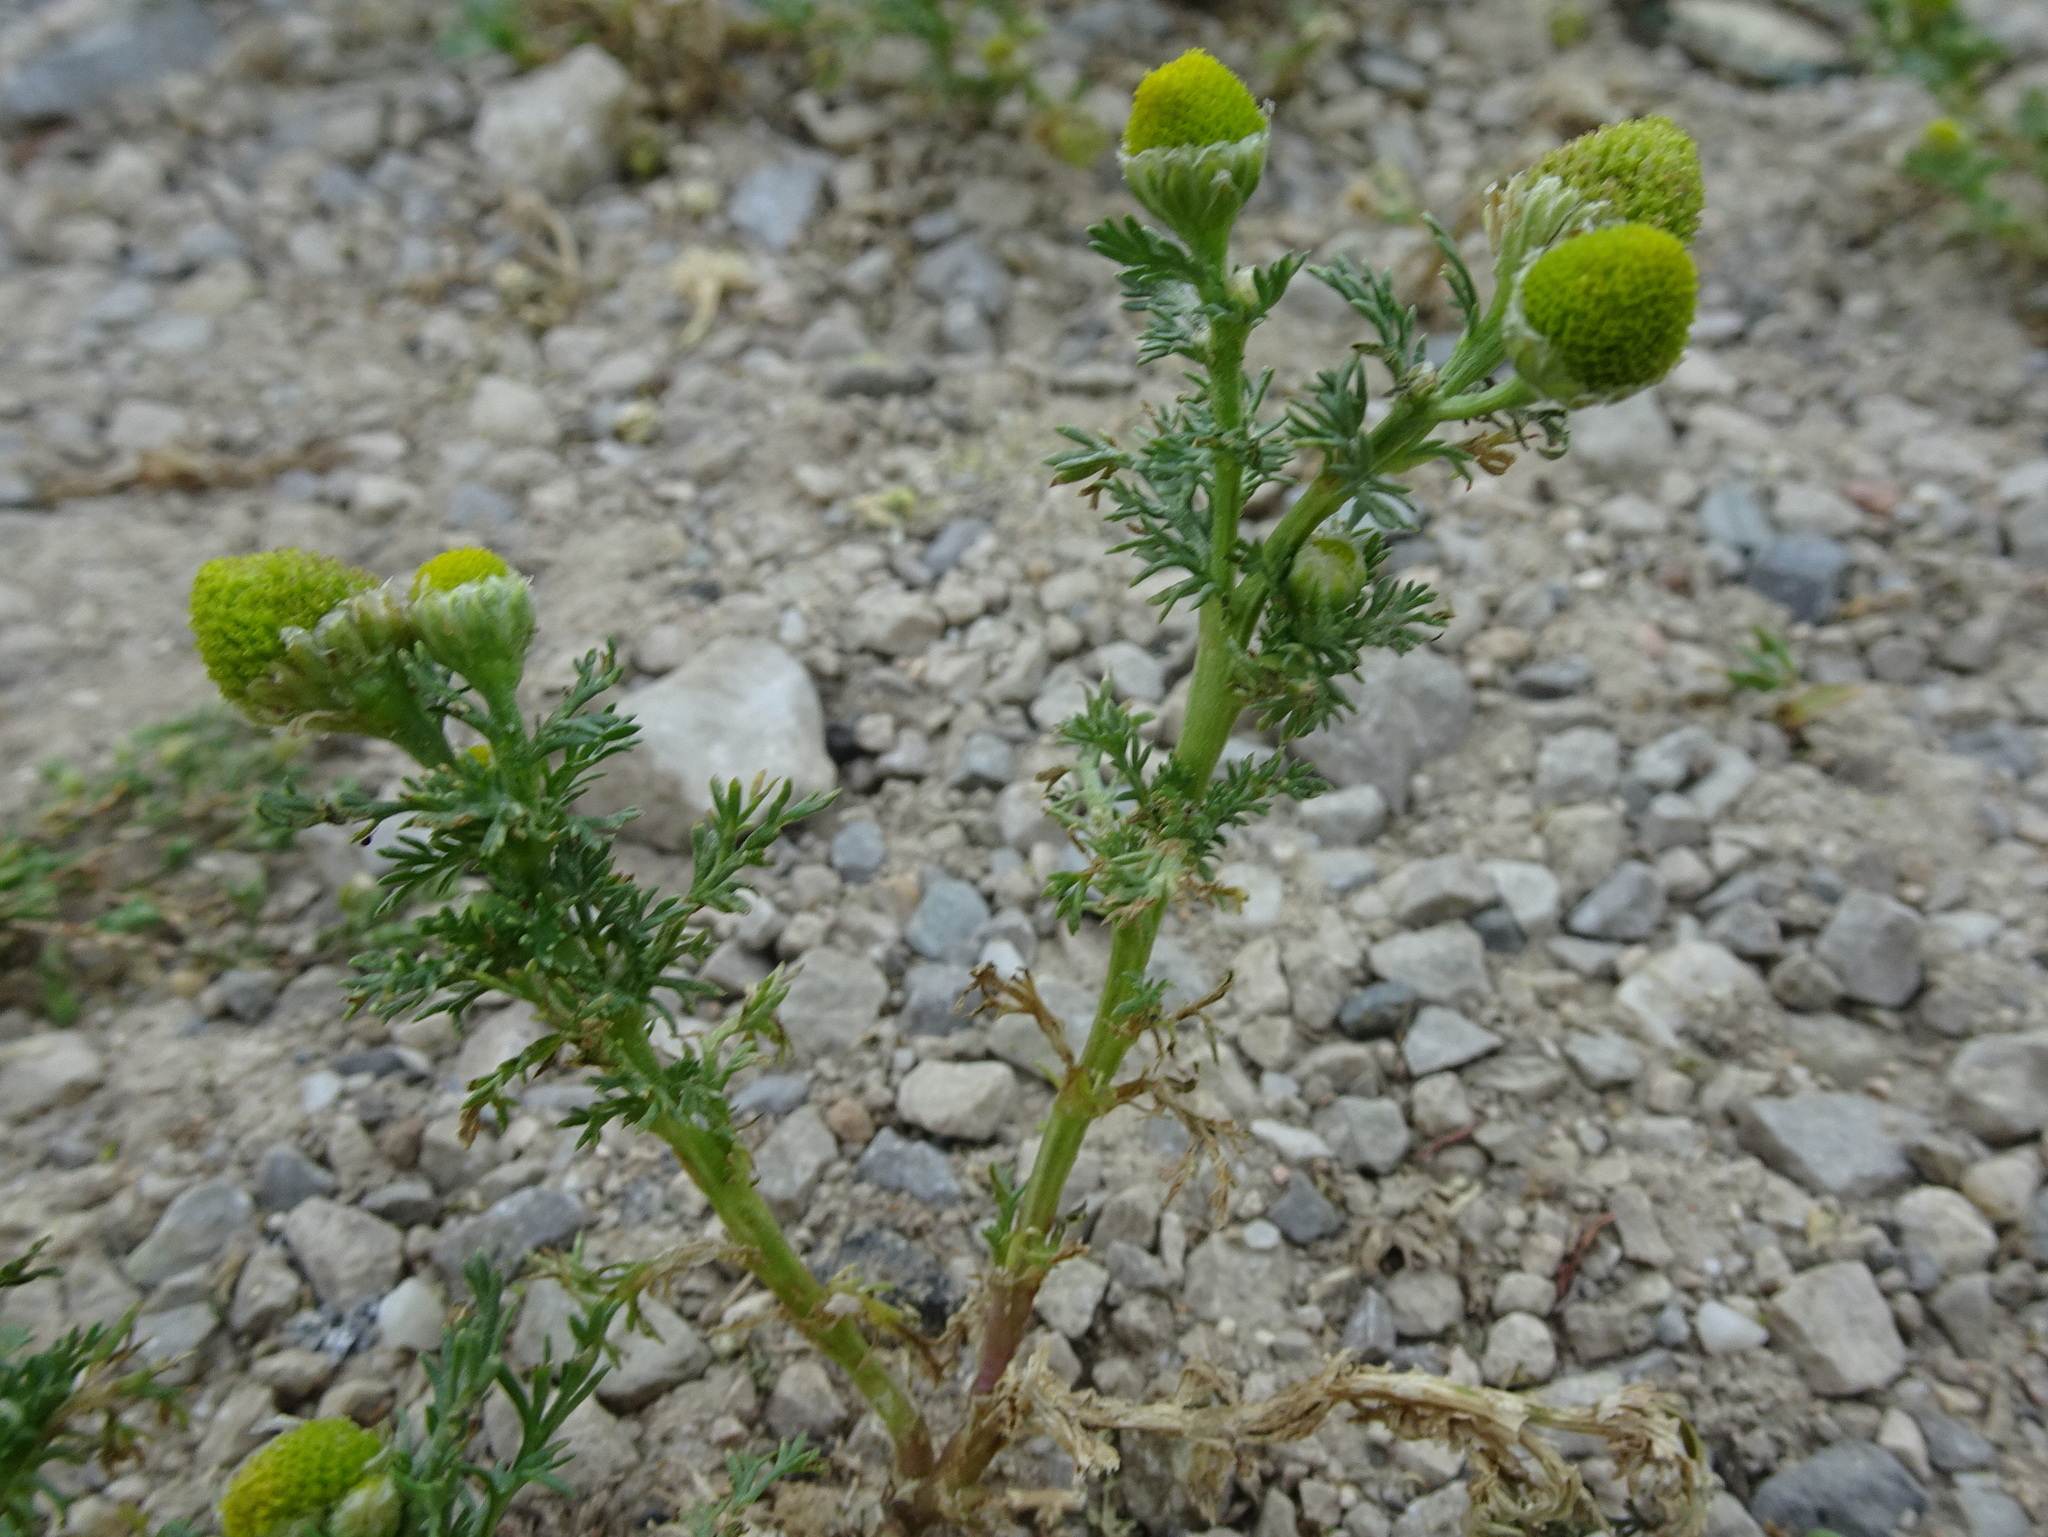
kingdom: Plantae
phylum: Tracheophyta
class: Magnoliopsida
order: Asterales
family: Asteraceae
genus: Matricaria
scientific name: Matricaria discoidea
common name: Disc mayweed
